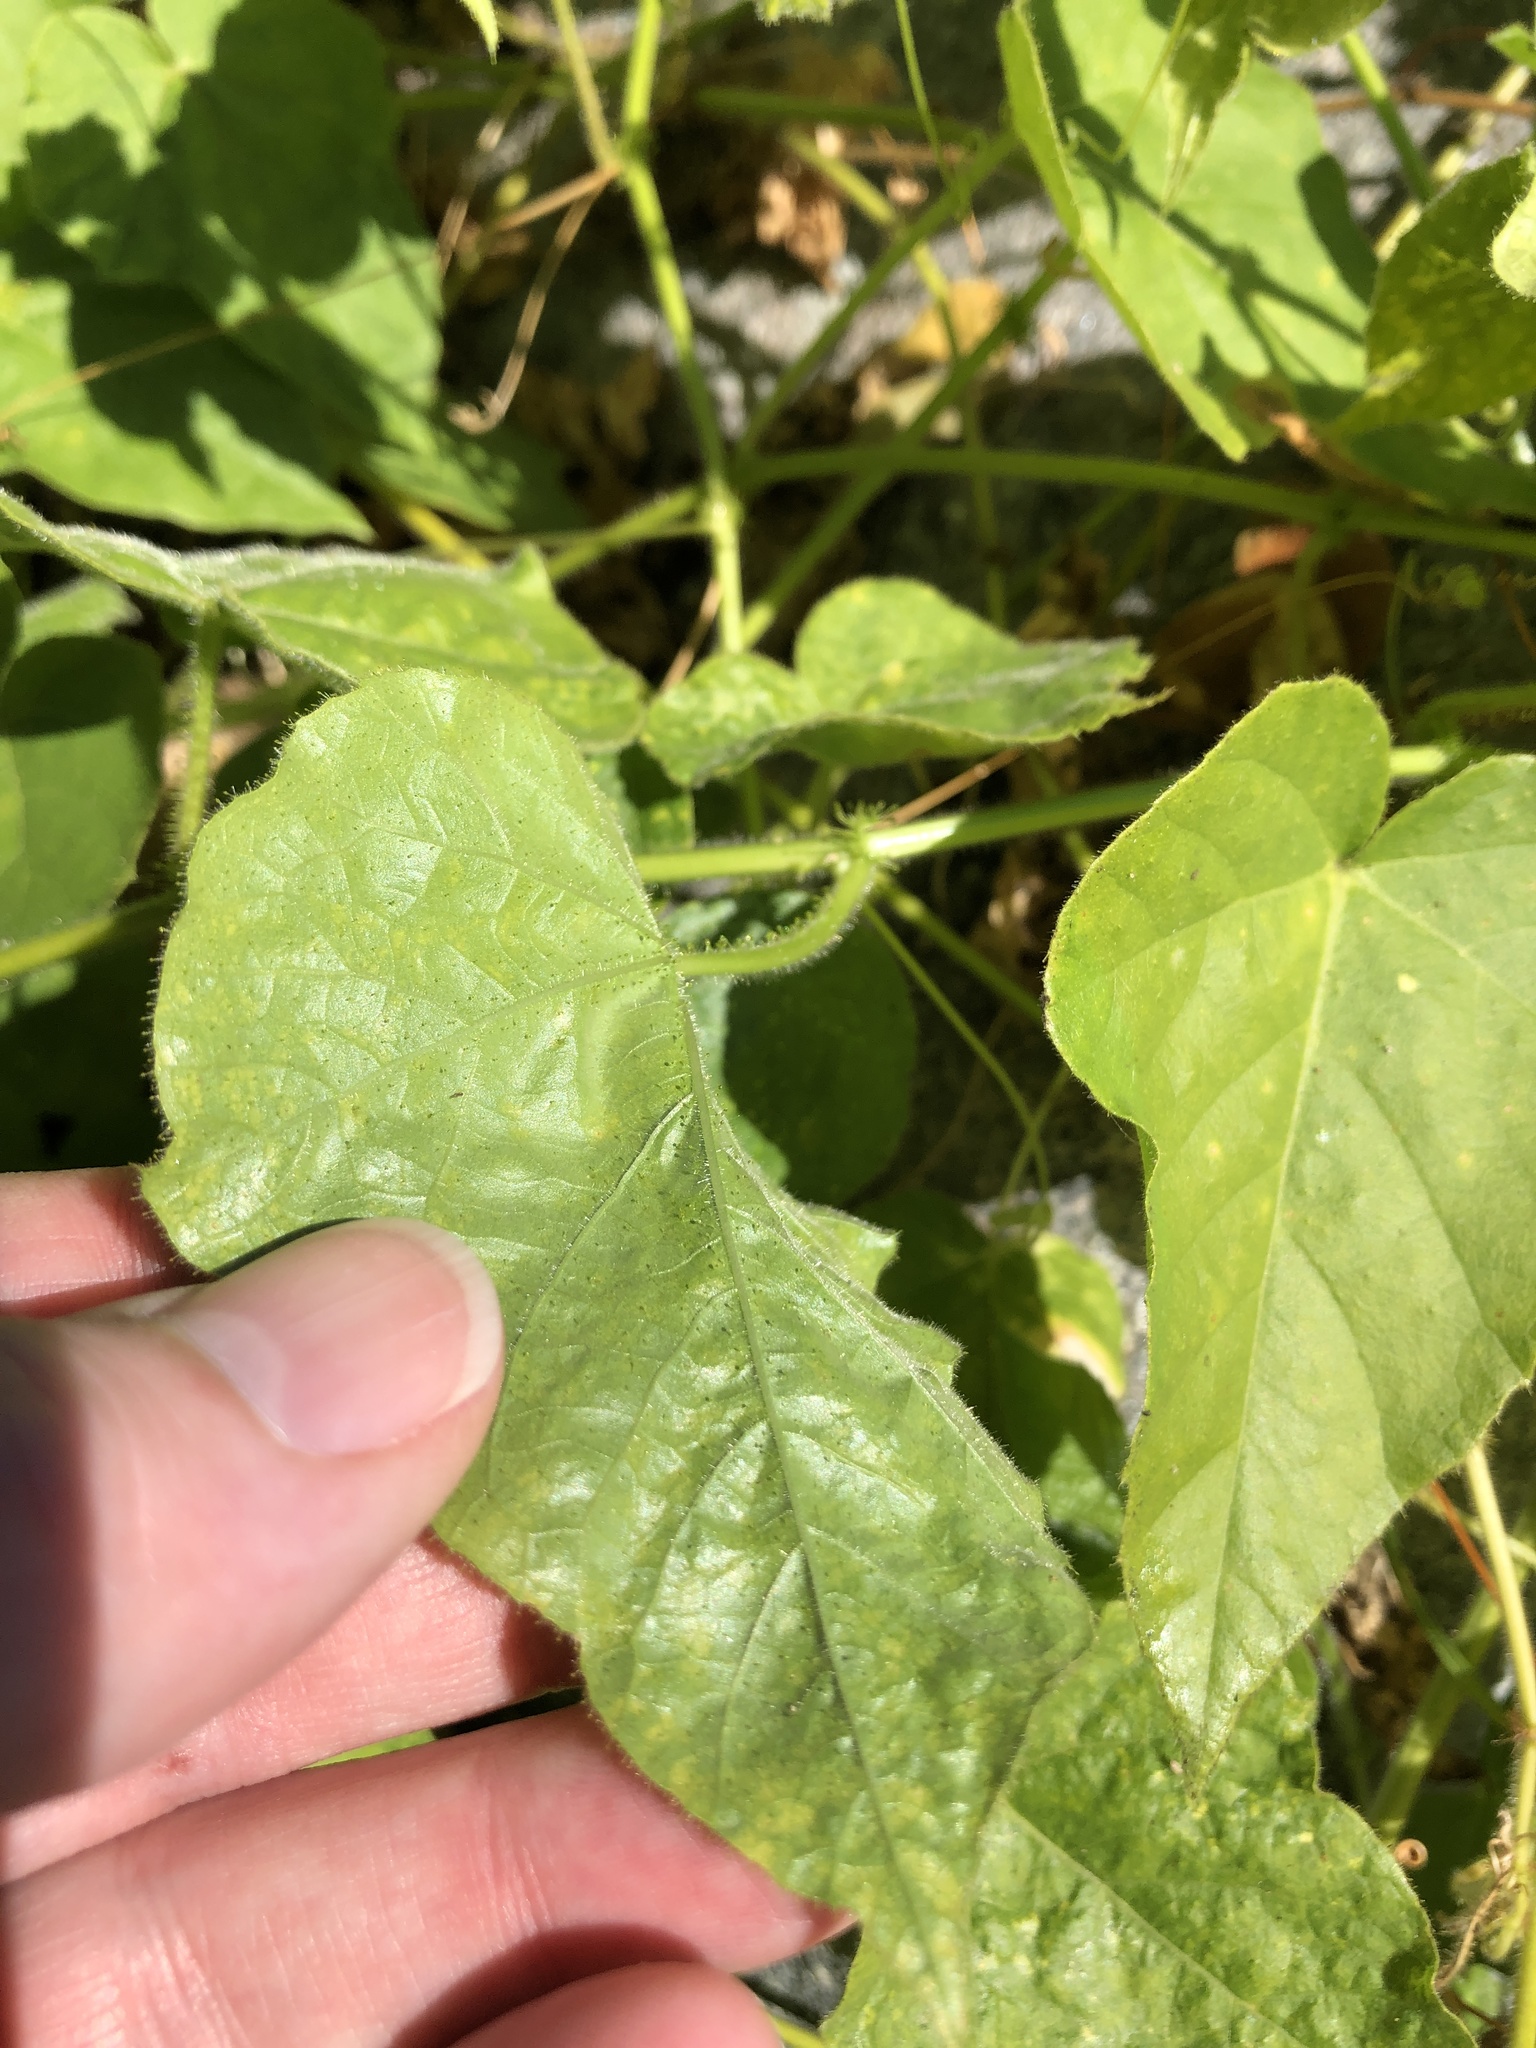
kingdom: Plantae
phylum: Tracheophyta
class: Magnoliopsida
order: Malpighiales
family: Passifloraceae
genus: Passiflora
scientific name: Passiflora foetida
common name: Fetid passionflower
